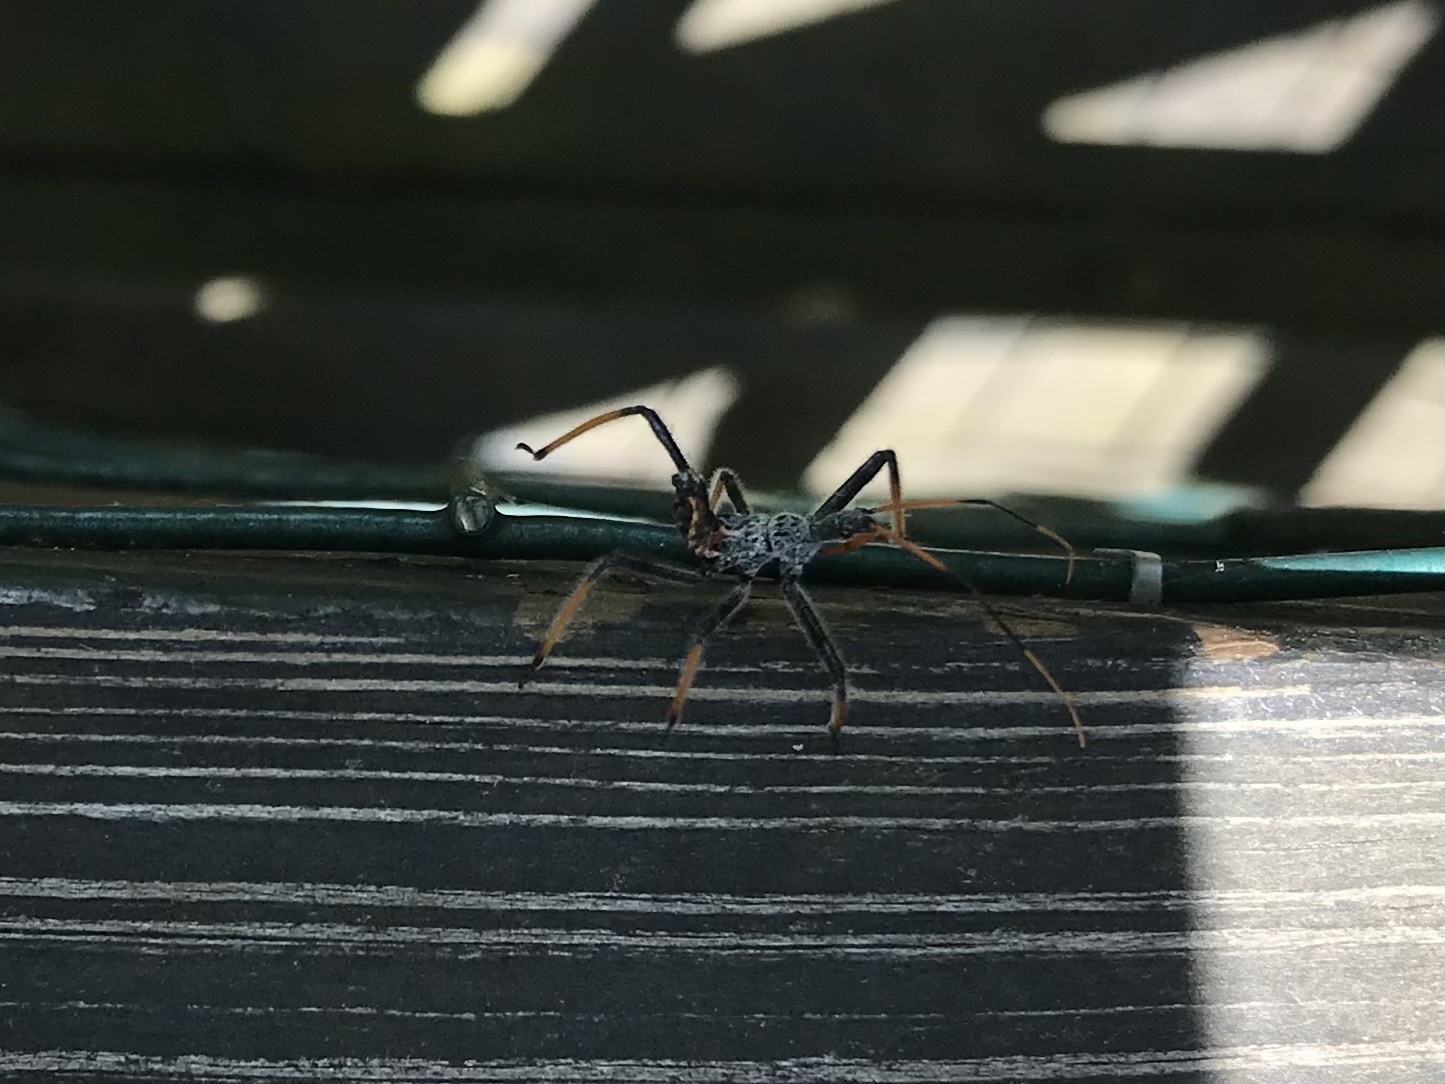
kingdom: Animalia
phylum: Arthropoda
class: Insecta
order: Hemiptera
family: Reduviidae
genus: Arilus
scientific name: Arilus cristatus
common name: North american wheel bug
